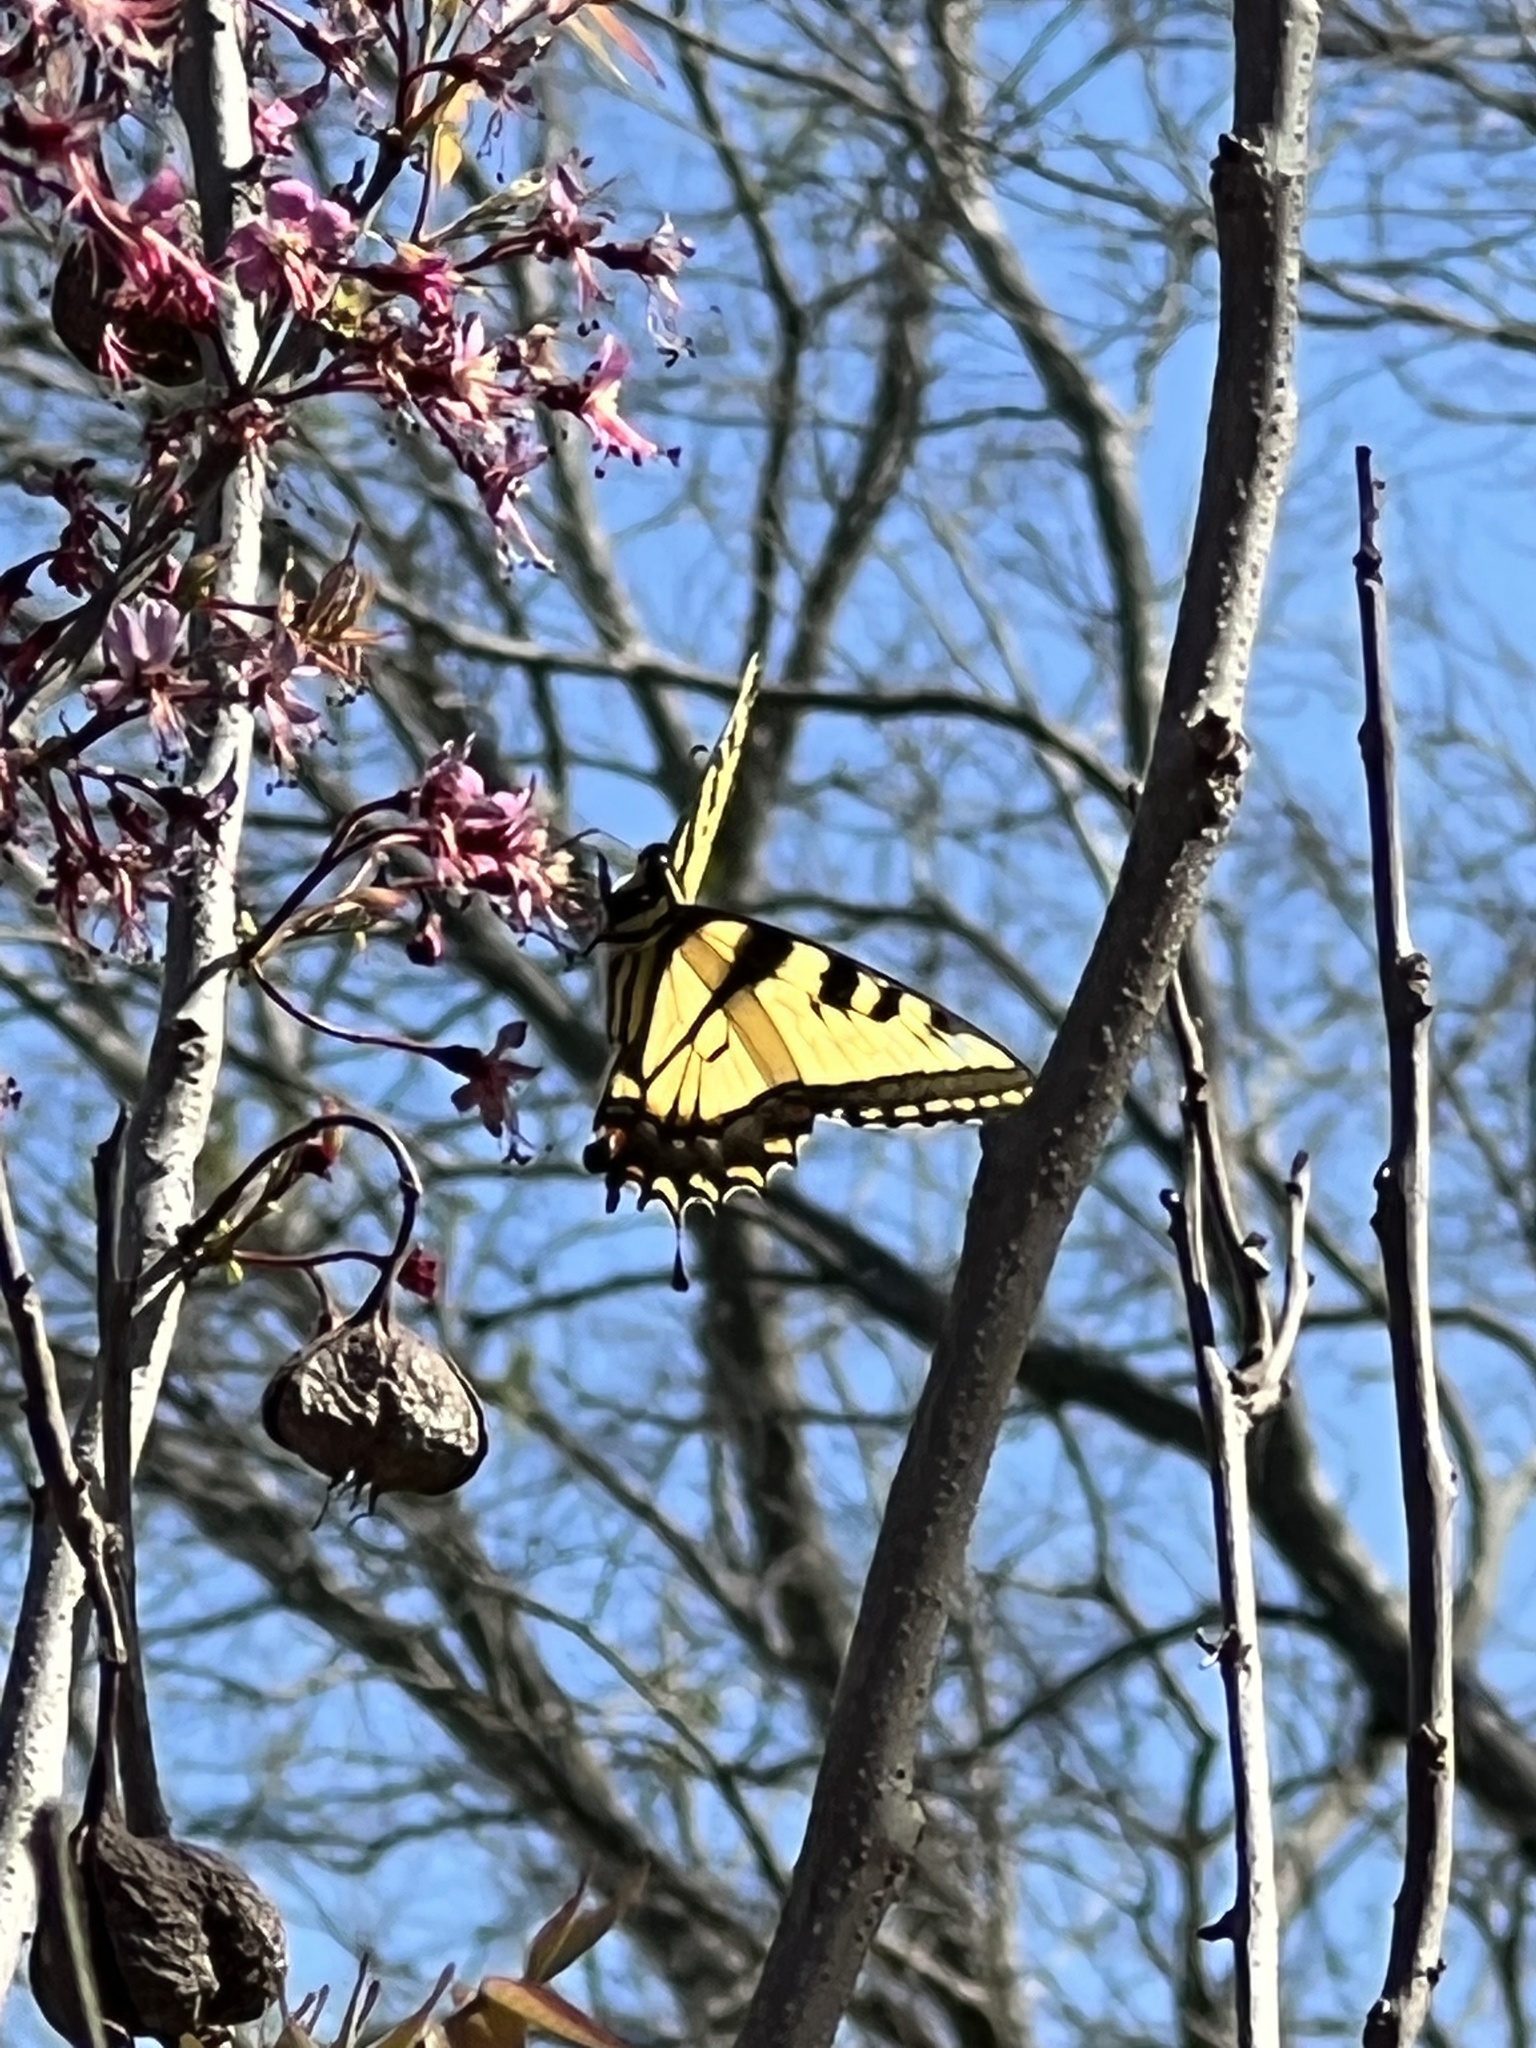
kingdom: Animalia
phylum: Arthropoda
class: Insecta
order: Lepidoptera
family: Papilionidae
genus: Papilio
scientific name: Papilio glaucus
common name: Tiger swallowtail
